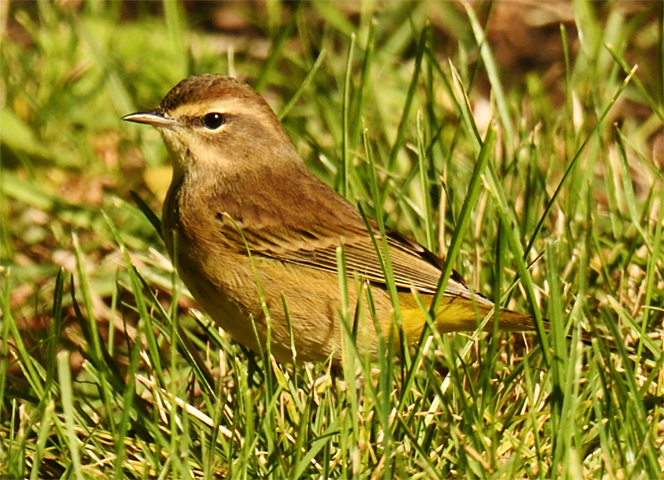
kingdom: Animalia
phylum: Chordata
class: Aves
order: Passeriformes
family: Parulidae
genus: Setophaga
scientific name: Setophaga palmarum
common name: Palm warbler
